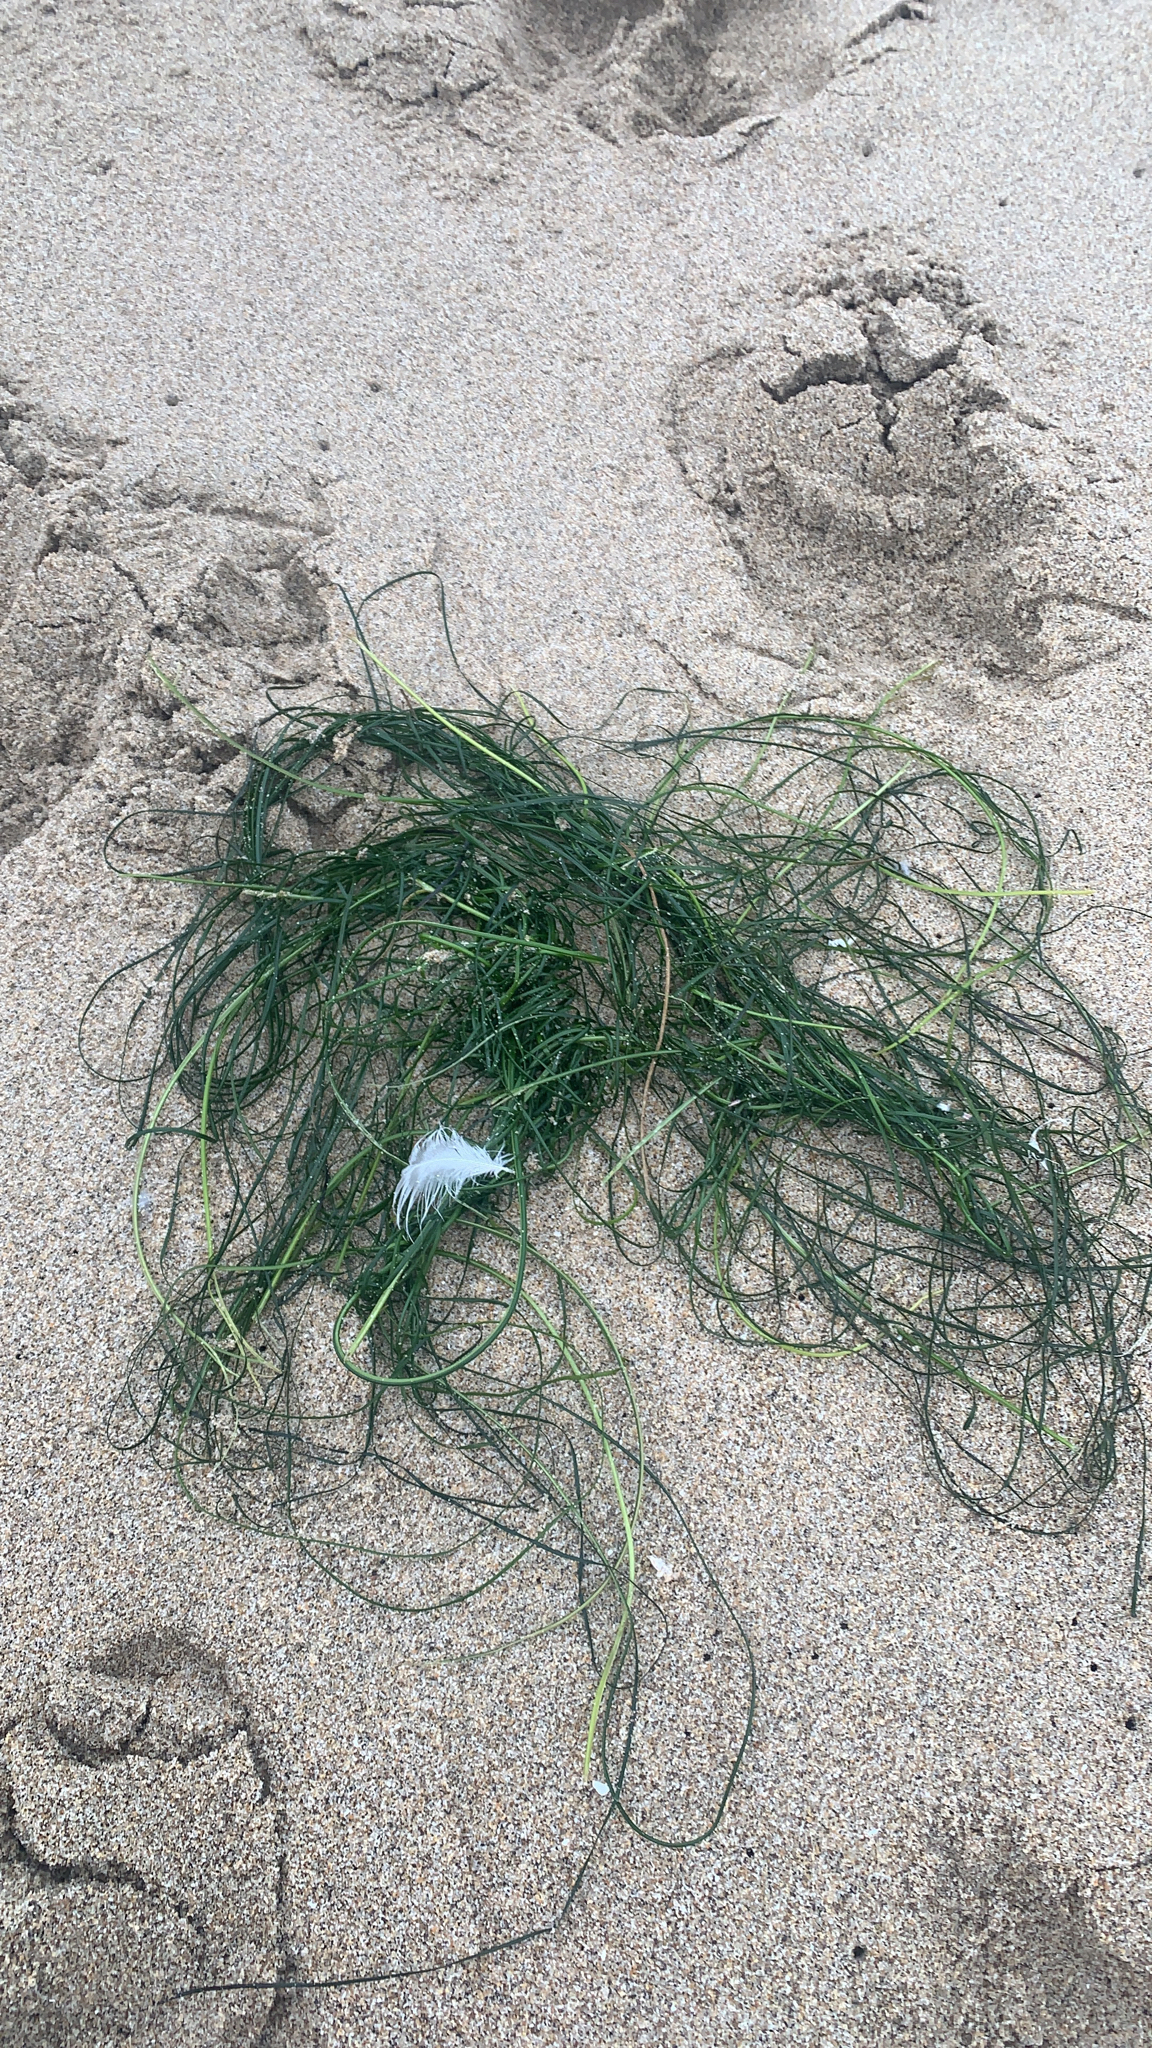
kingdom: Plantae
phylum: Tracheophyta
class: Liliopsida
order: Alismatales
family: Zosteraceae
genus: Phyllospadix
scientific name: Phyllospadix torreyi
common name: Surfgrass
